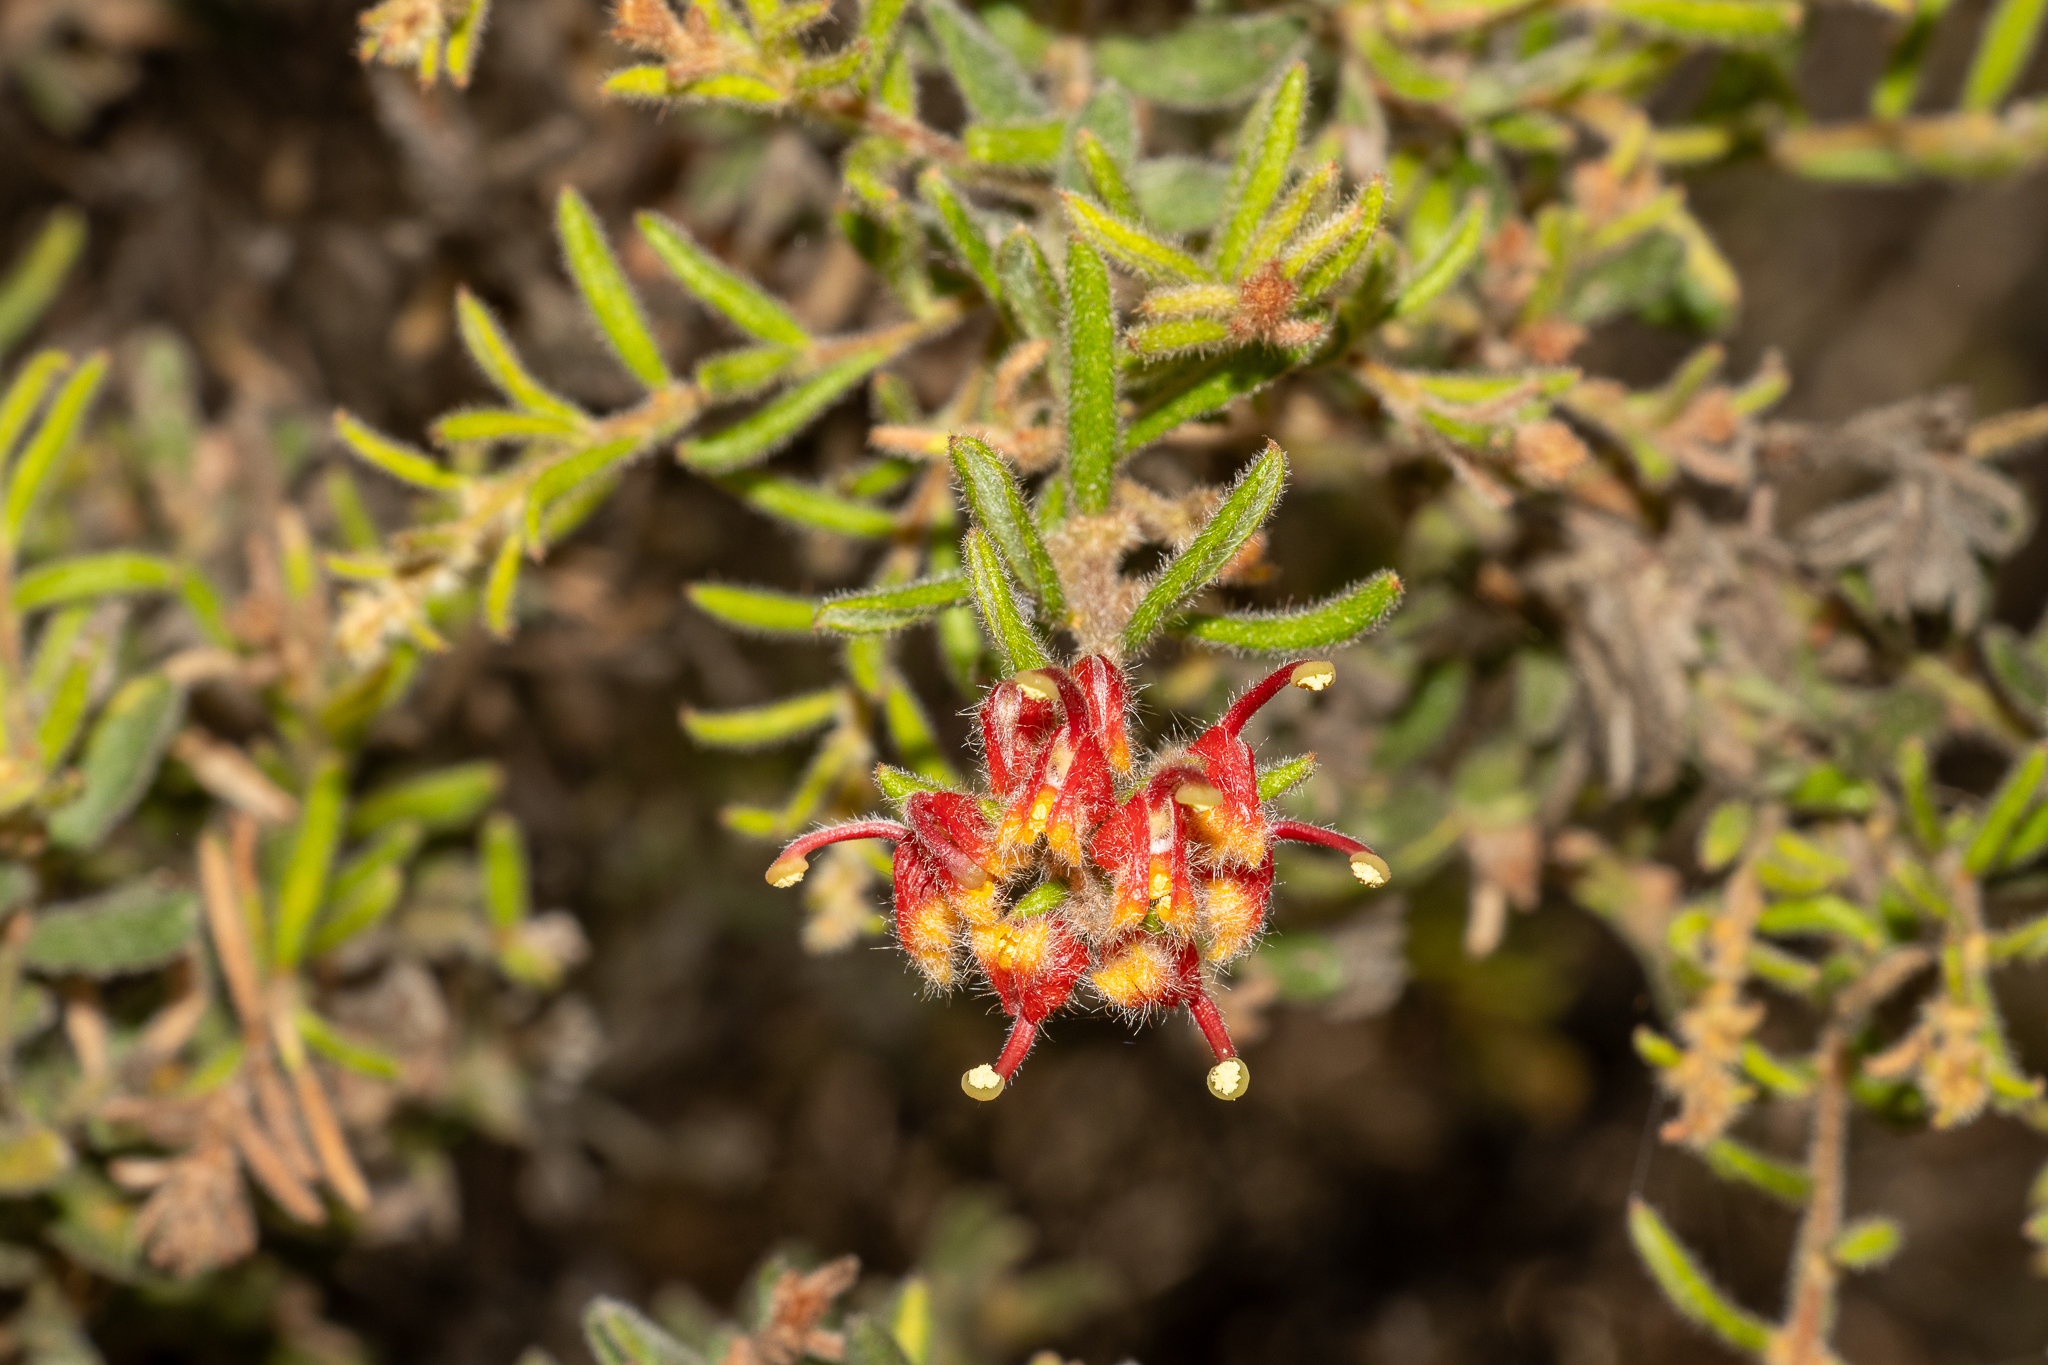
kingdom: Plantae
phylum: Tracheophyta
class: Magnoliopsida
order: Proteales
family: Proteaceae
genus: Grevillea
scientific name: Grevillea alpina
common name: Catclaws grevillea
